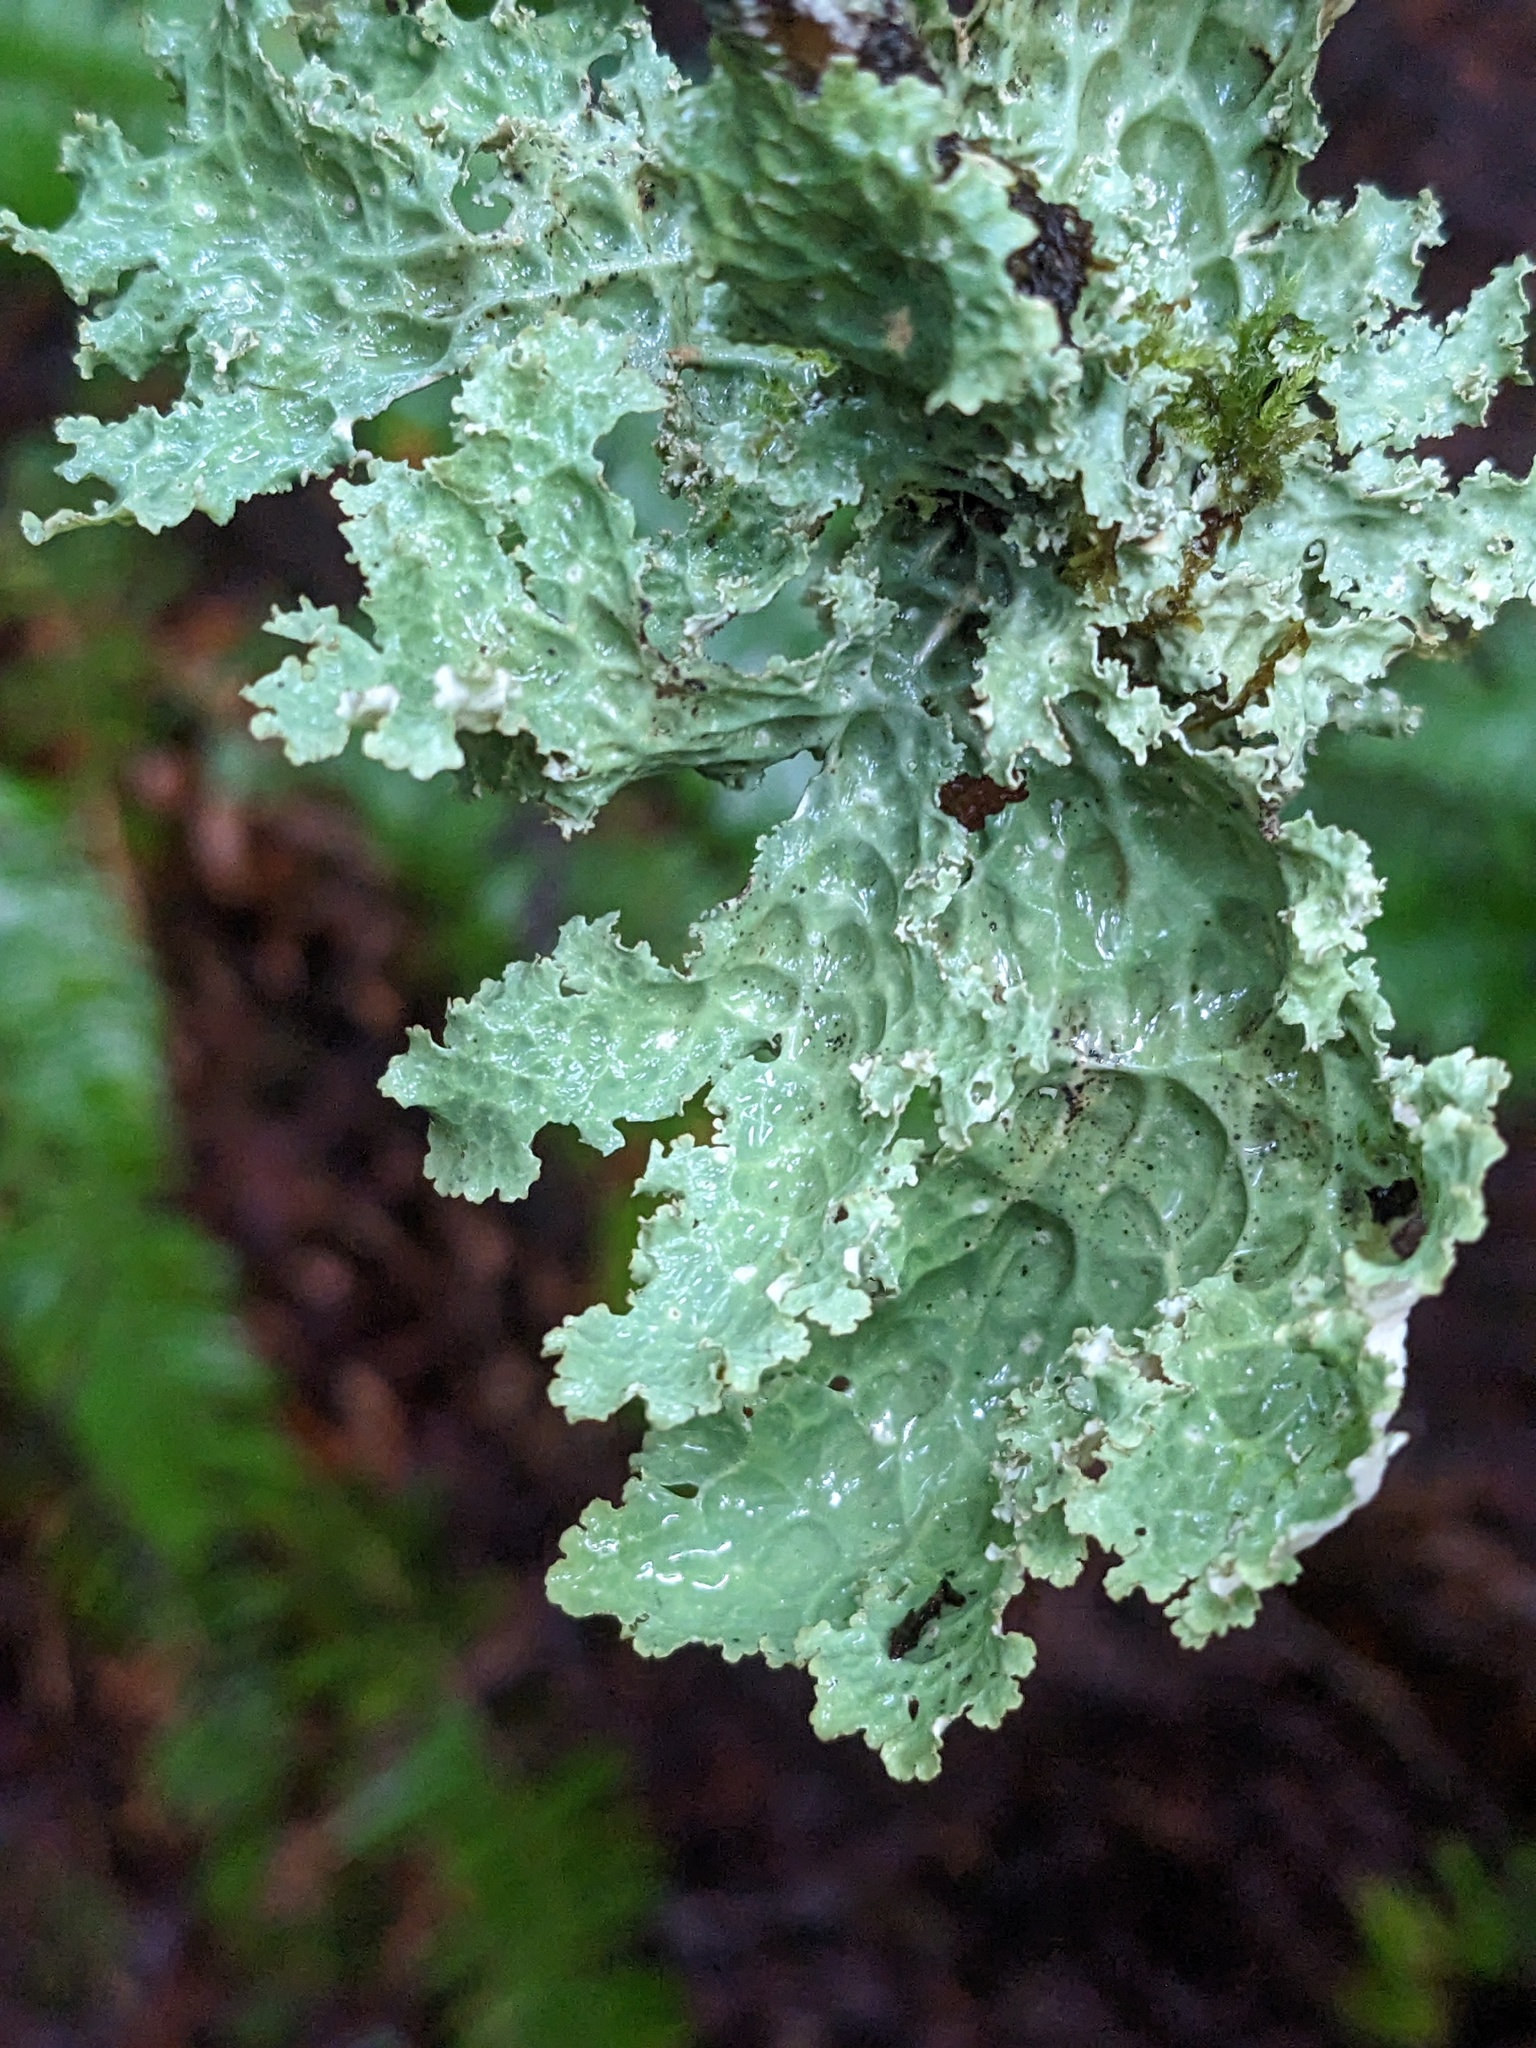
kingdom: Fungi
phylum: Ascomycota
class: Lecanoromycetes
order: Peltigerales
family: Lobariaceae
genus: Lobaria
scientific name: Lobaria oregana
